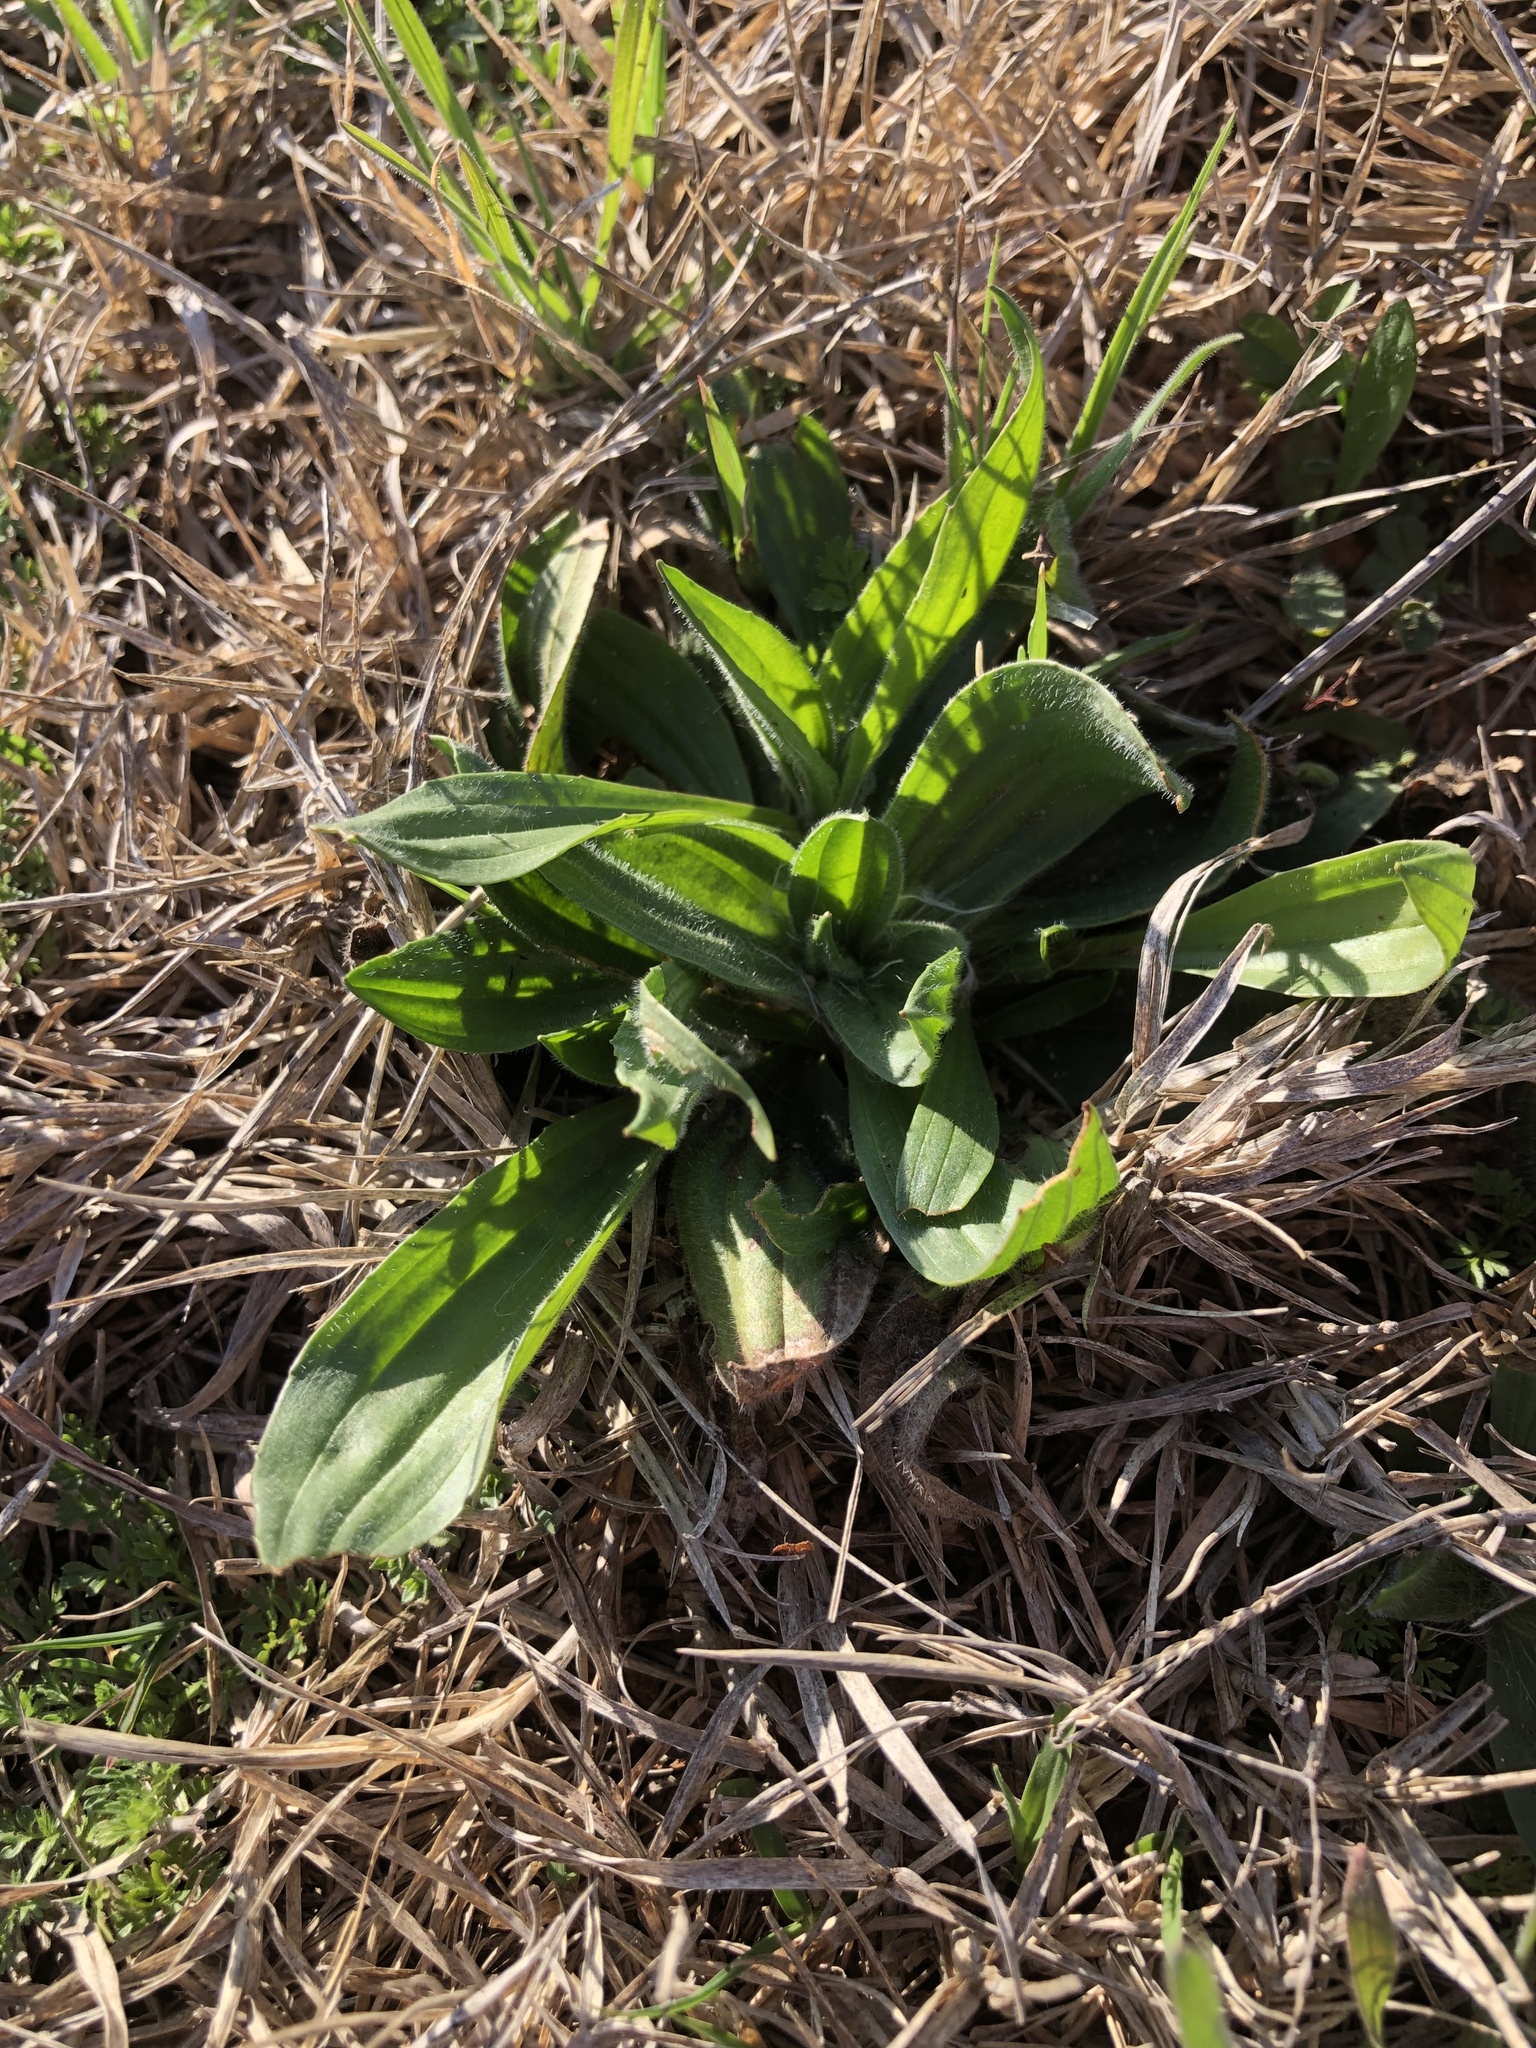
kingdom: Plantae
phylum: Tracheophyta
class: Magnoliopsida
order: Lamiales
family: Plantaginaceae
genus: Plantago
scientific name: Plantago lanceolata
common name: Ribwort plantain
